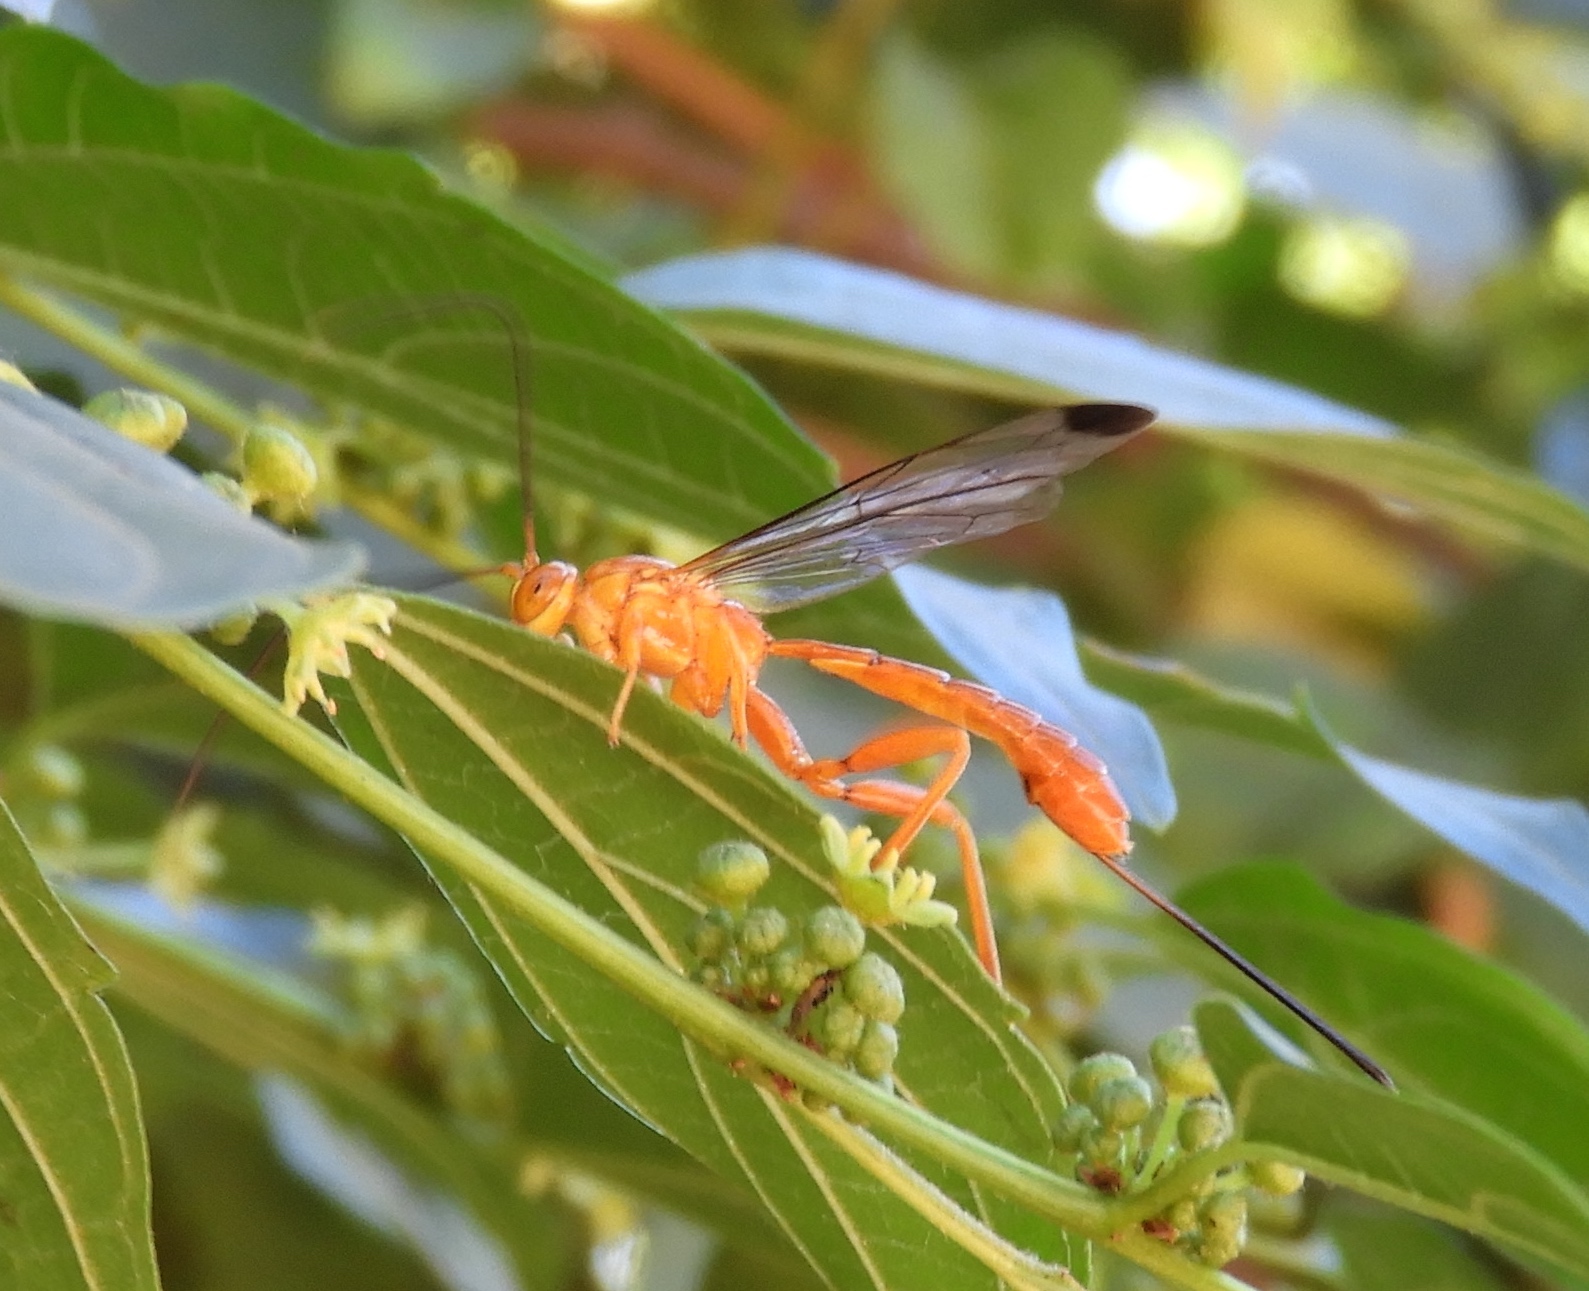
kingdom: Animalia
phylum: Arthropoda
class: Insecta
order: Hymenoptera
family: Ichneumonidae
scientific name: Ichneumonidae
